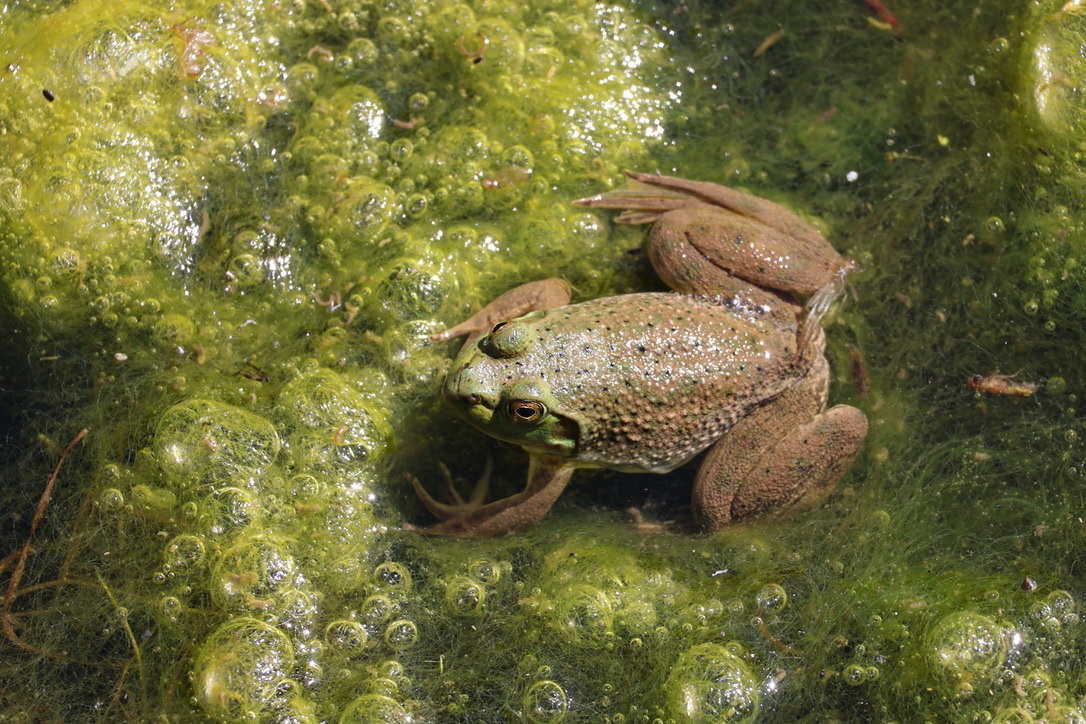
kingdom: Animalia
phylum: Chordata
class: Amphibia
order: Anura
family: Ranidae
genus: Lithobates
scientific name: Lithobates catesbeianus
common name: American bullfrog
